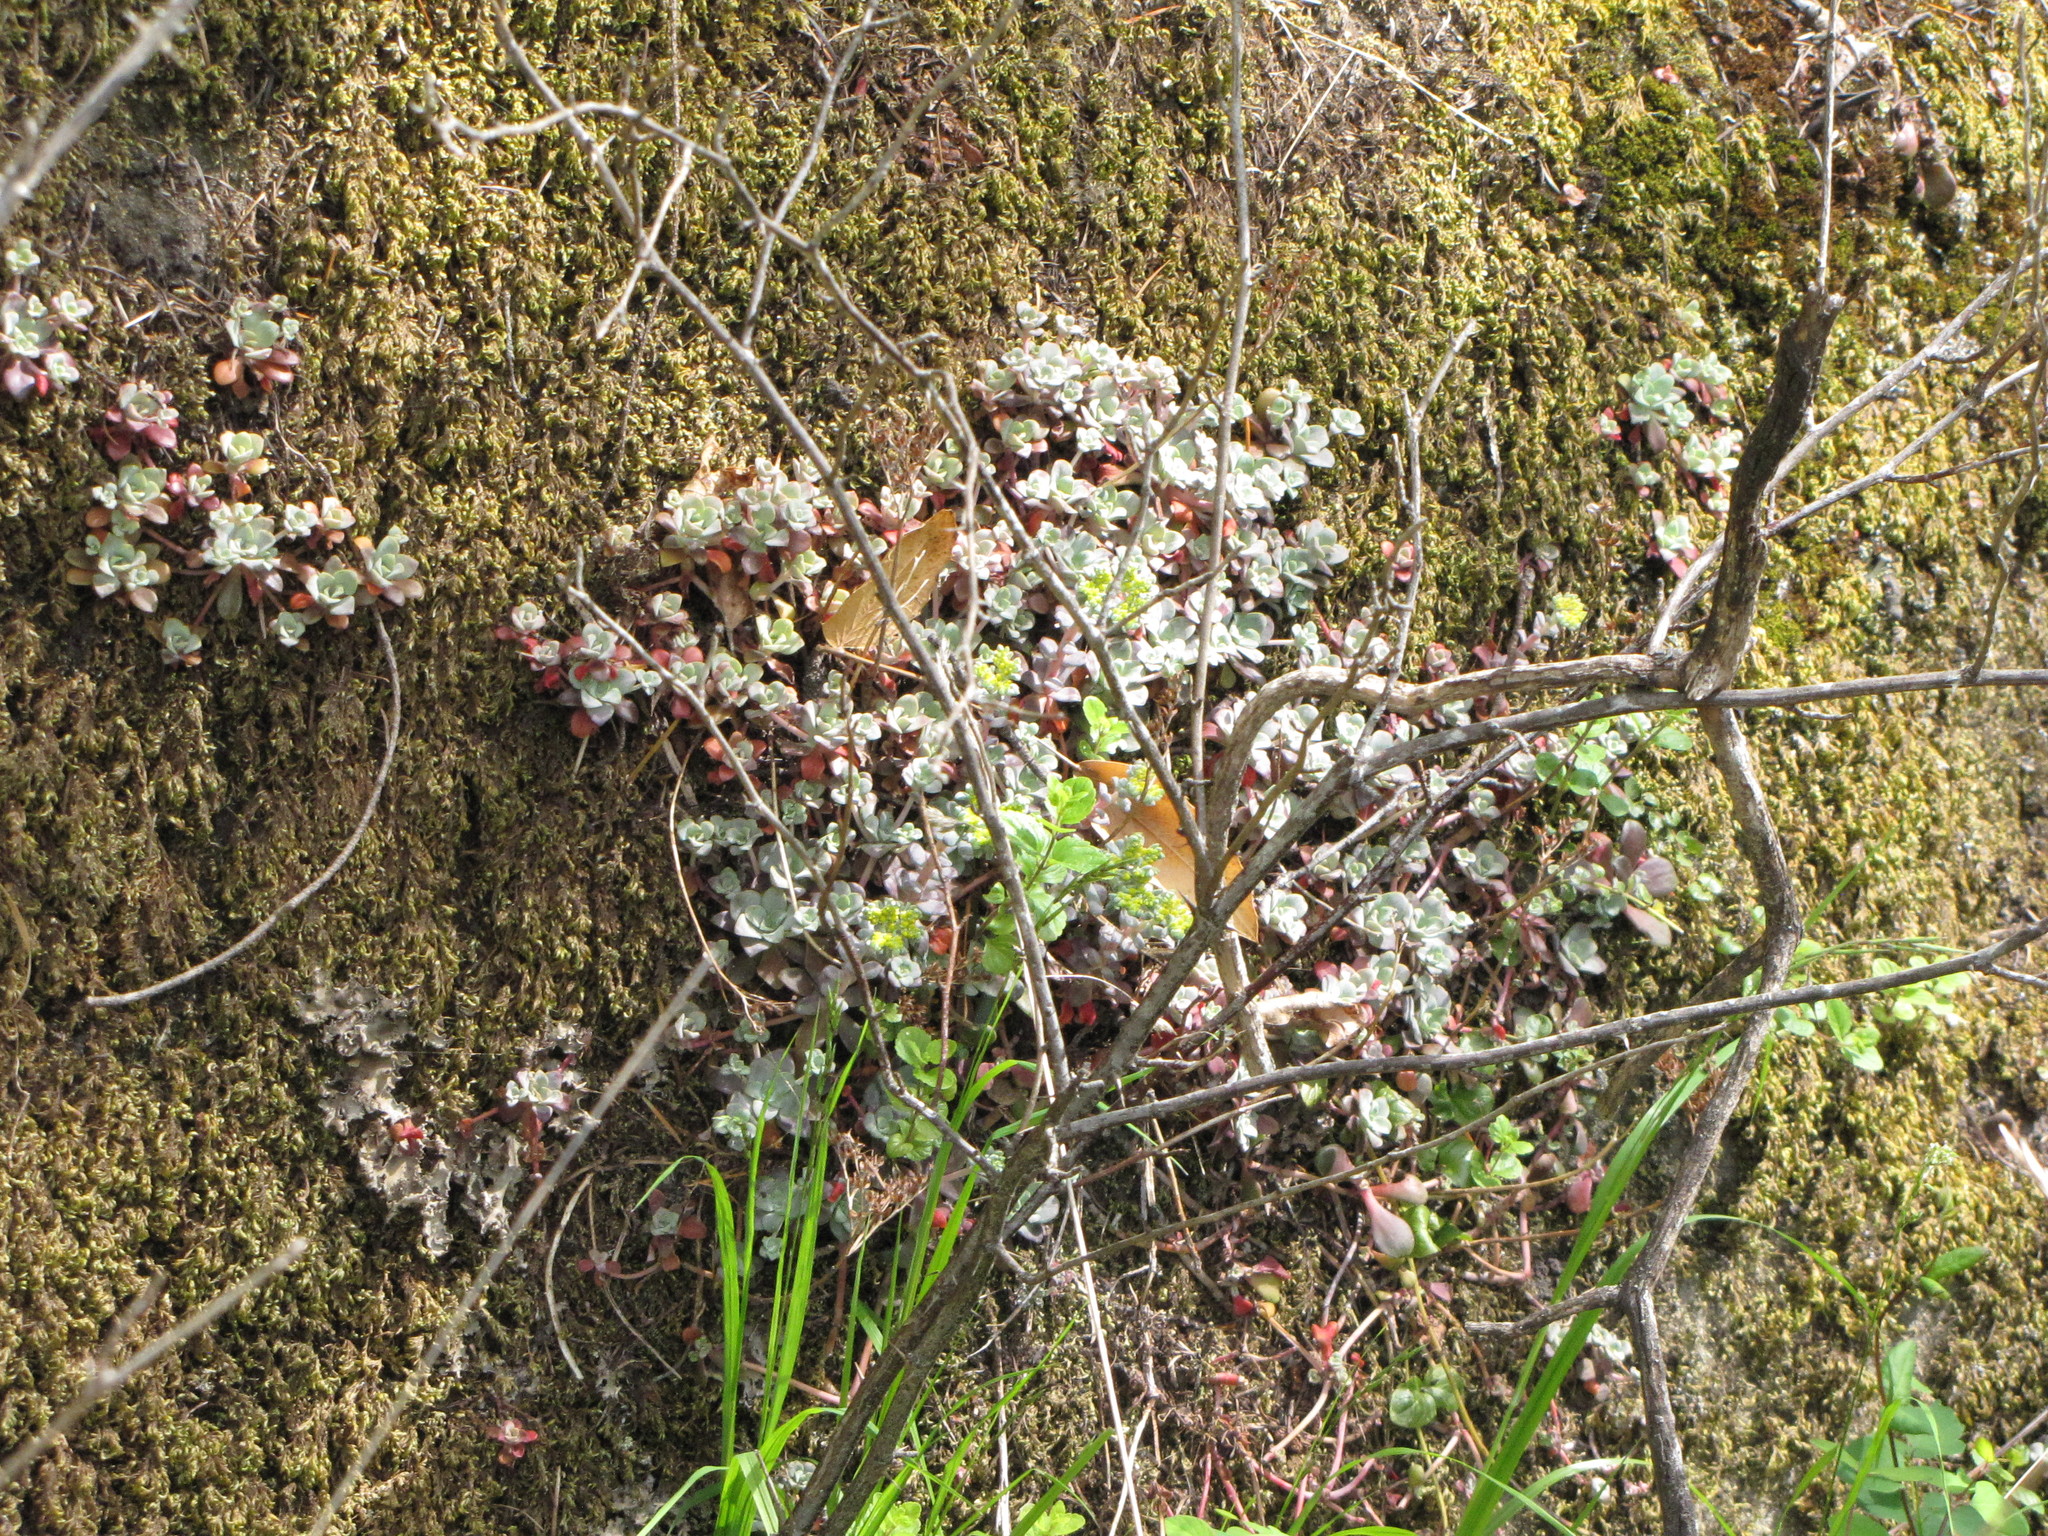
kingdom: Plantae
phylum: Tracheophyta
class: Magnoliopsida
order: Saxifragales
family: Crassulaceae
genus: Sedum
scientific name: Sedum spathulifolium
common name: Colorado stonecrop
